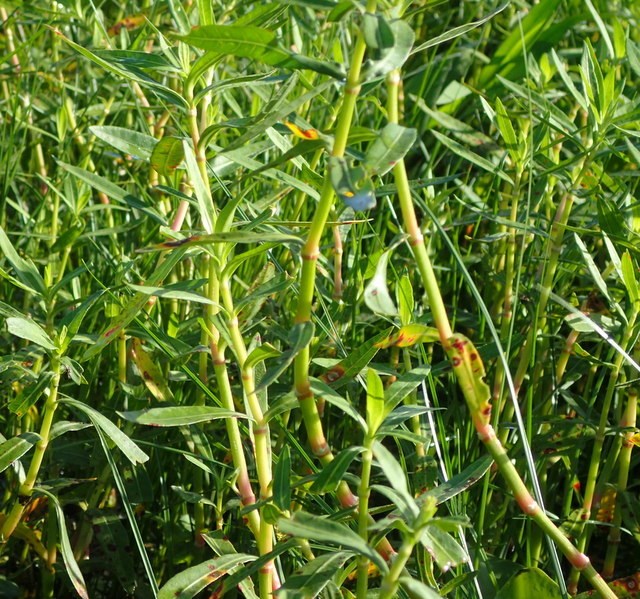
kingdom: Plantae
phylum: Tracheophyta
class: Magnoliopsida
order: Caryophyllales
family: Amaranthaceae
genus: Alternanthera
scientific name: Alternanthera philoxeroides
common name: Alligatorweed
